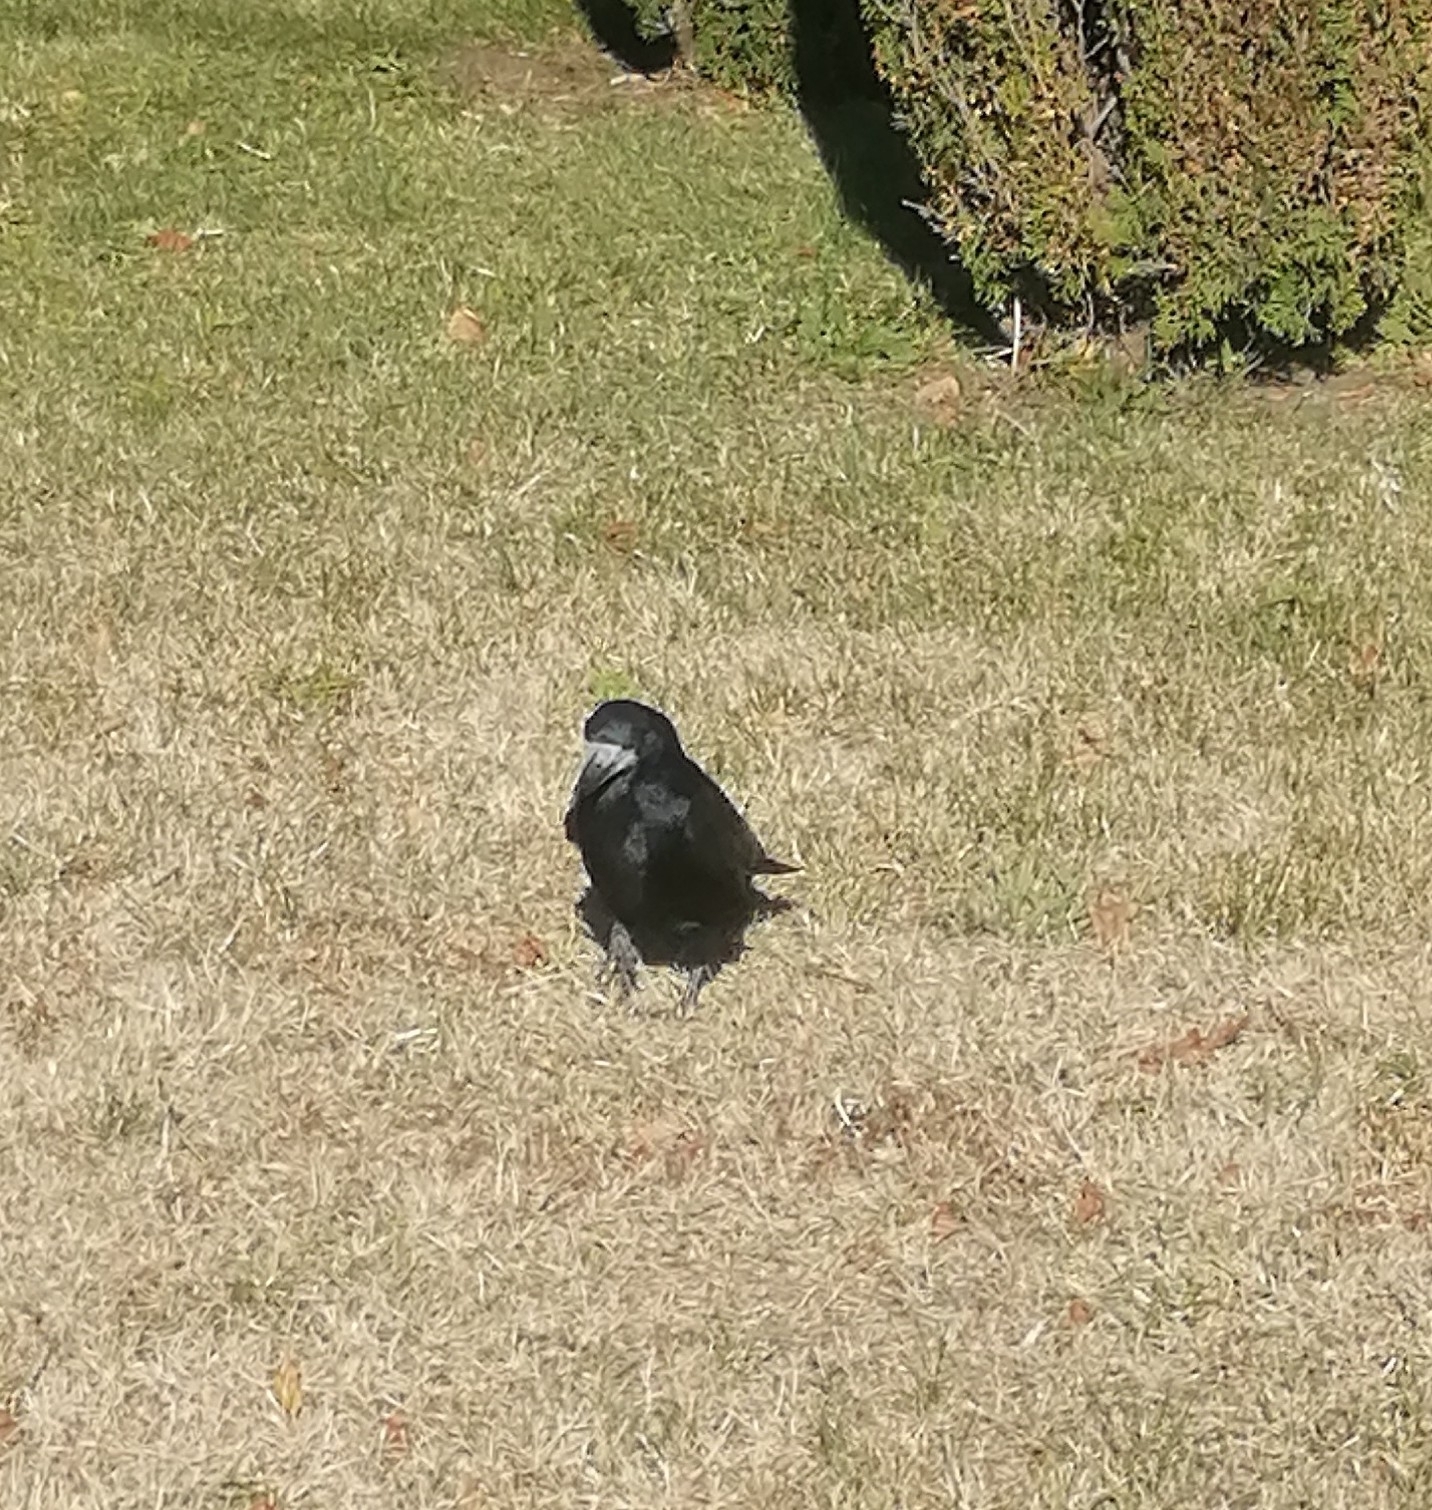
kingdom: Animalia
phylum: Chordata
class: Aves
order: Passeriformes
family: Corvidae
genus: Corvus
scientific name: Corvus frugilegus
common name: Rook
